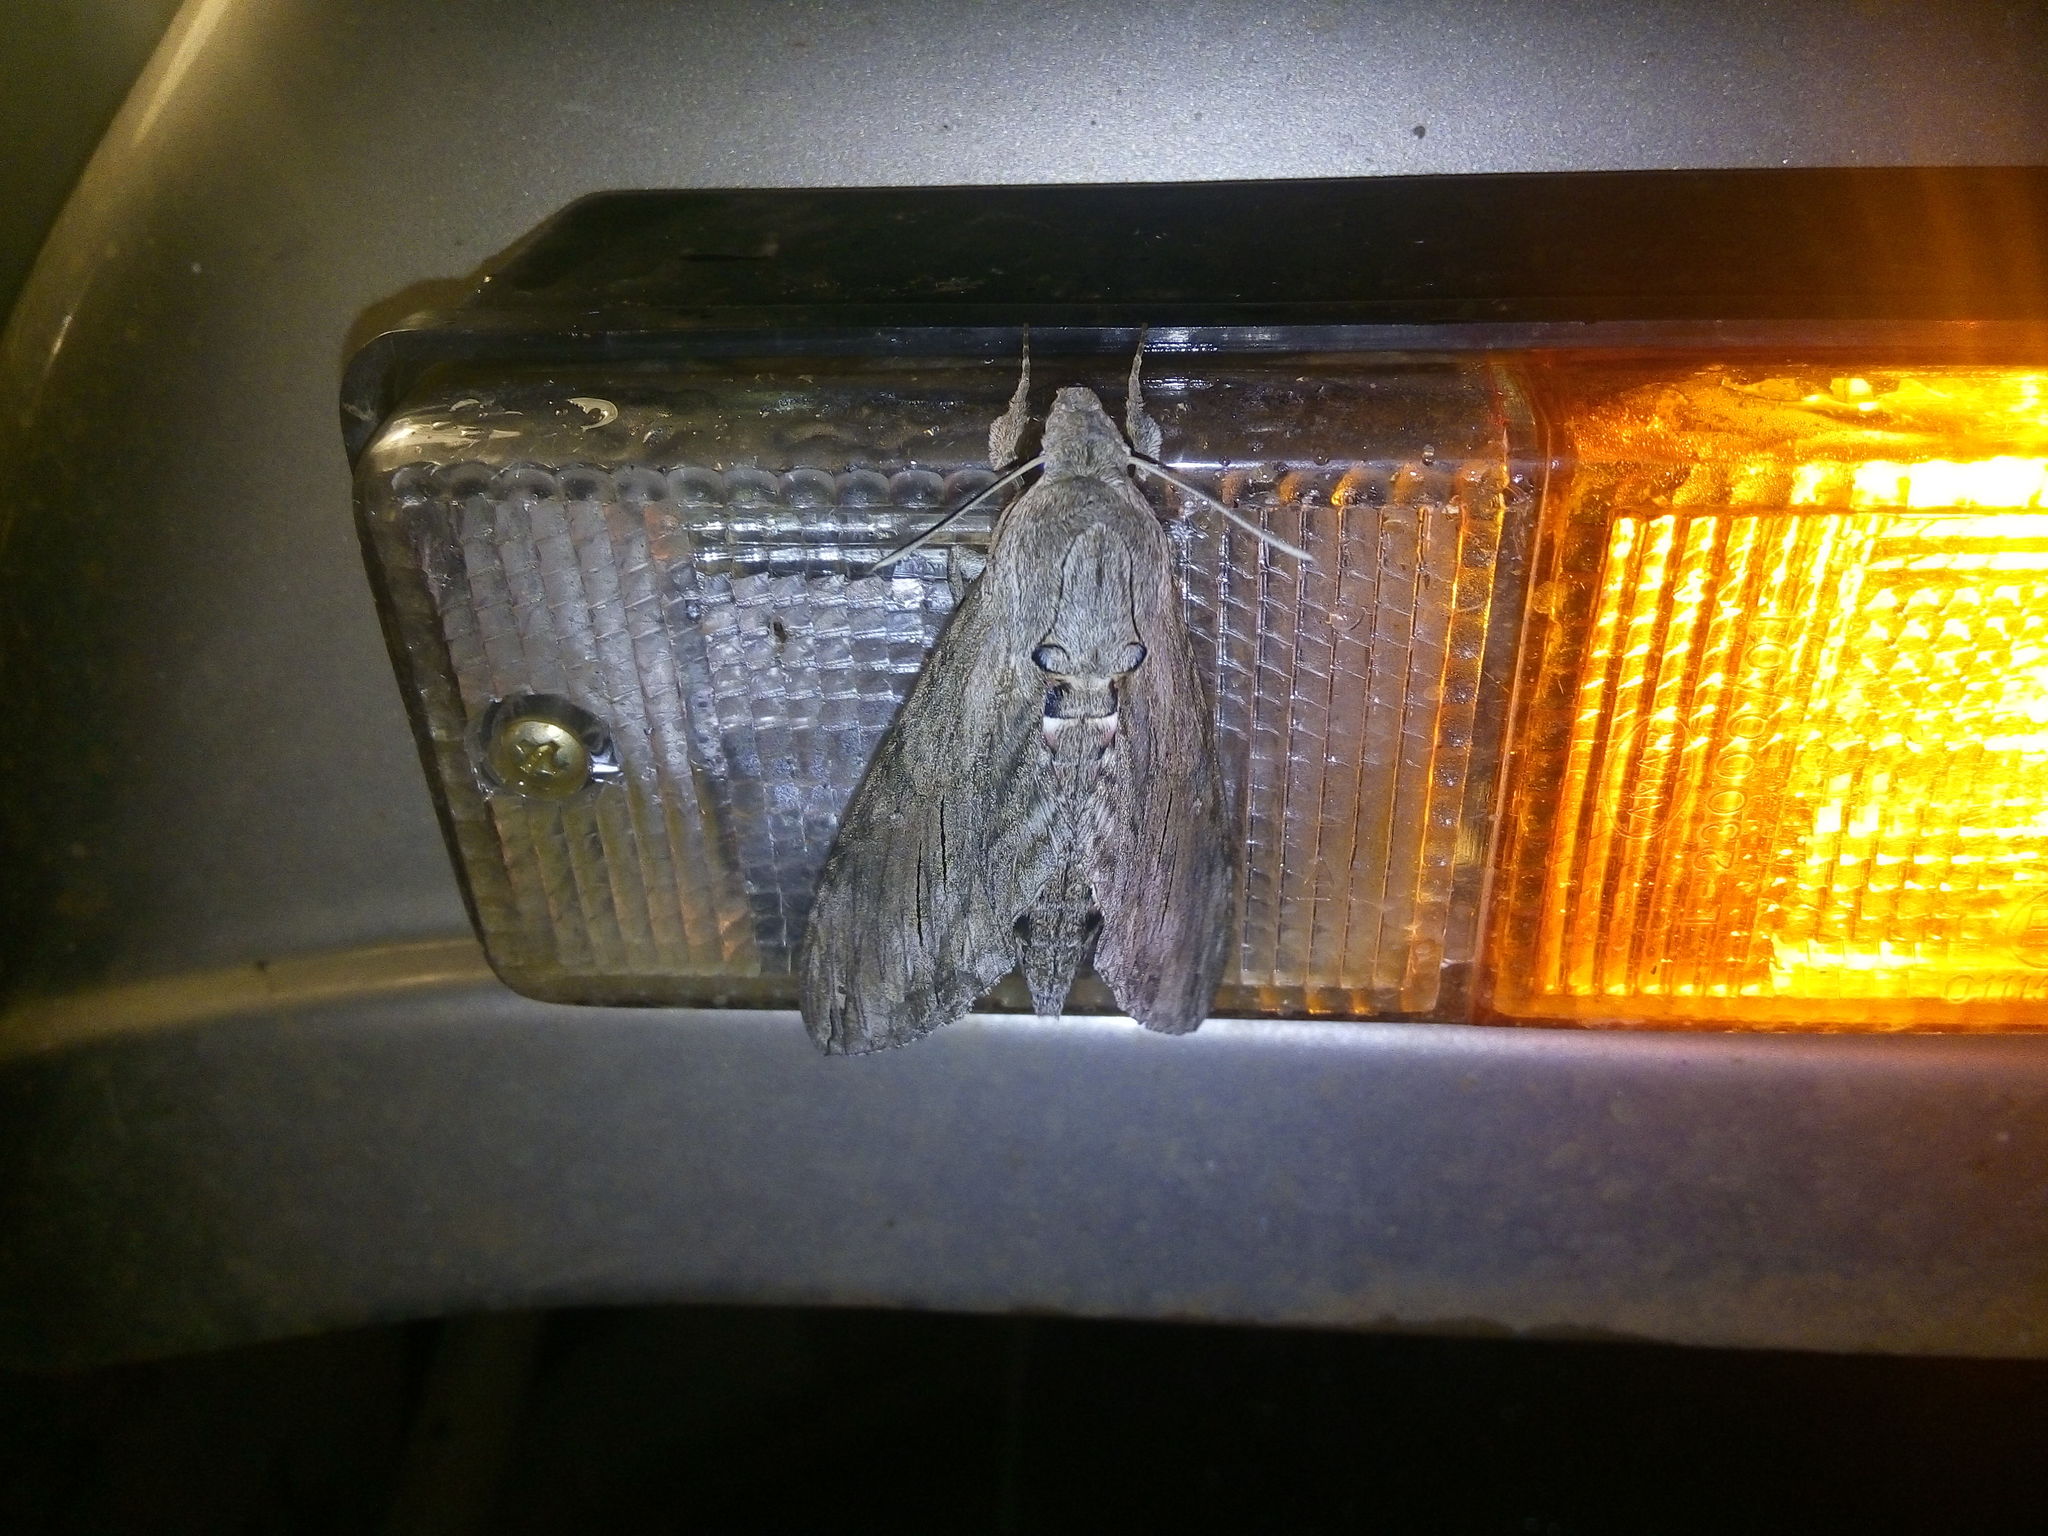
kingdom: Animalia
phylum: Arthropoda
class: Insecta
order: Lepidoptera
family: Sphingidae
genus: Agrius
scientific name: Agrius convolvuli
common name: Convolvulus hawkmoth
